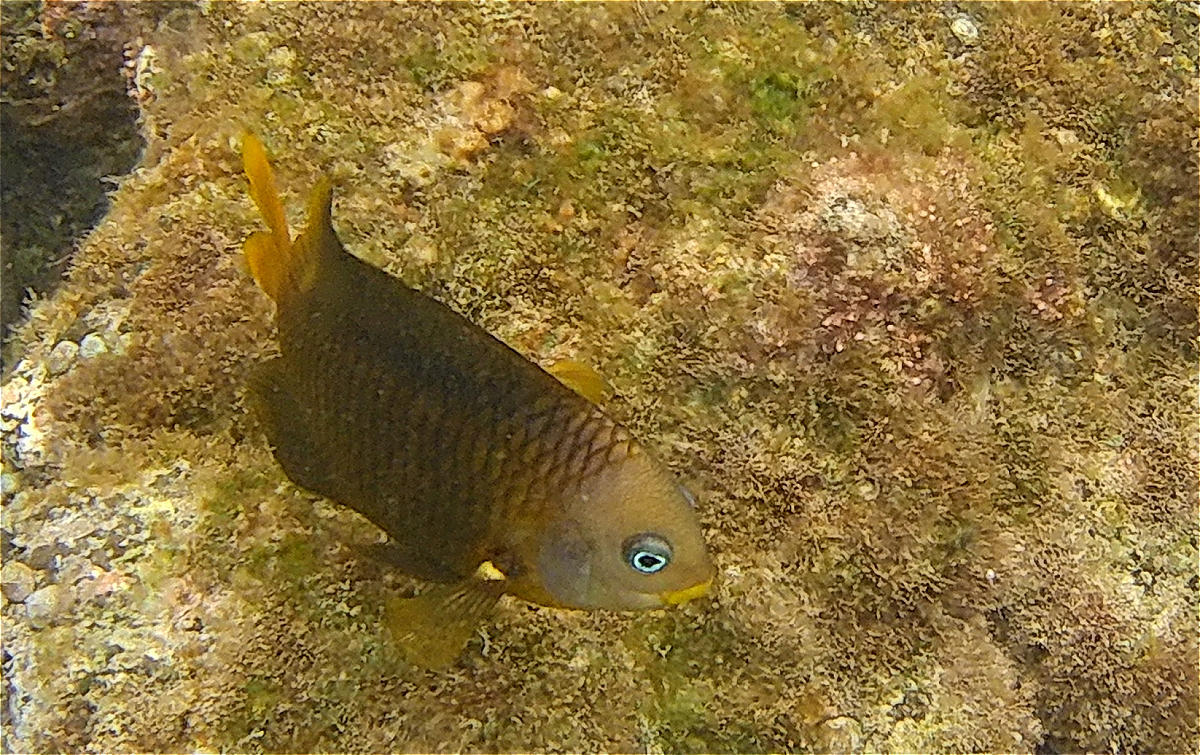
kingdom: Animalia
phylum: Chordata
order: Perciformes
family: Pomacentridae
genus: Stegastes
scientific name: Stegastes arcifrons
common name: Galapagos gregory
